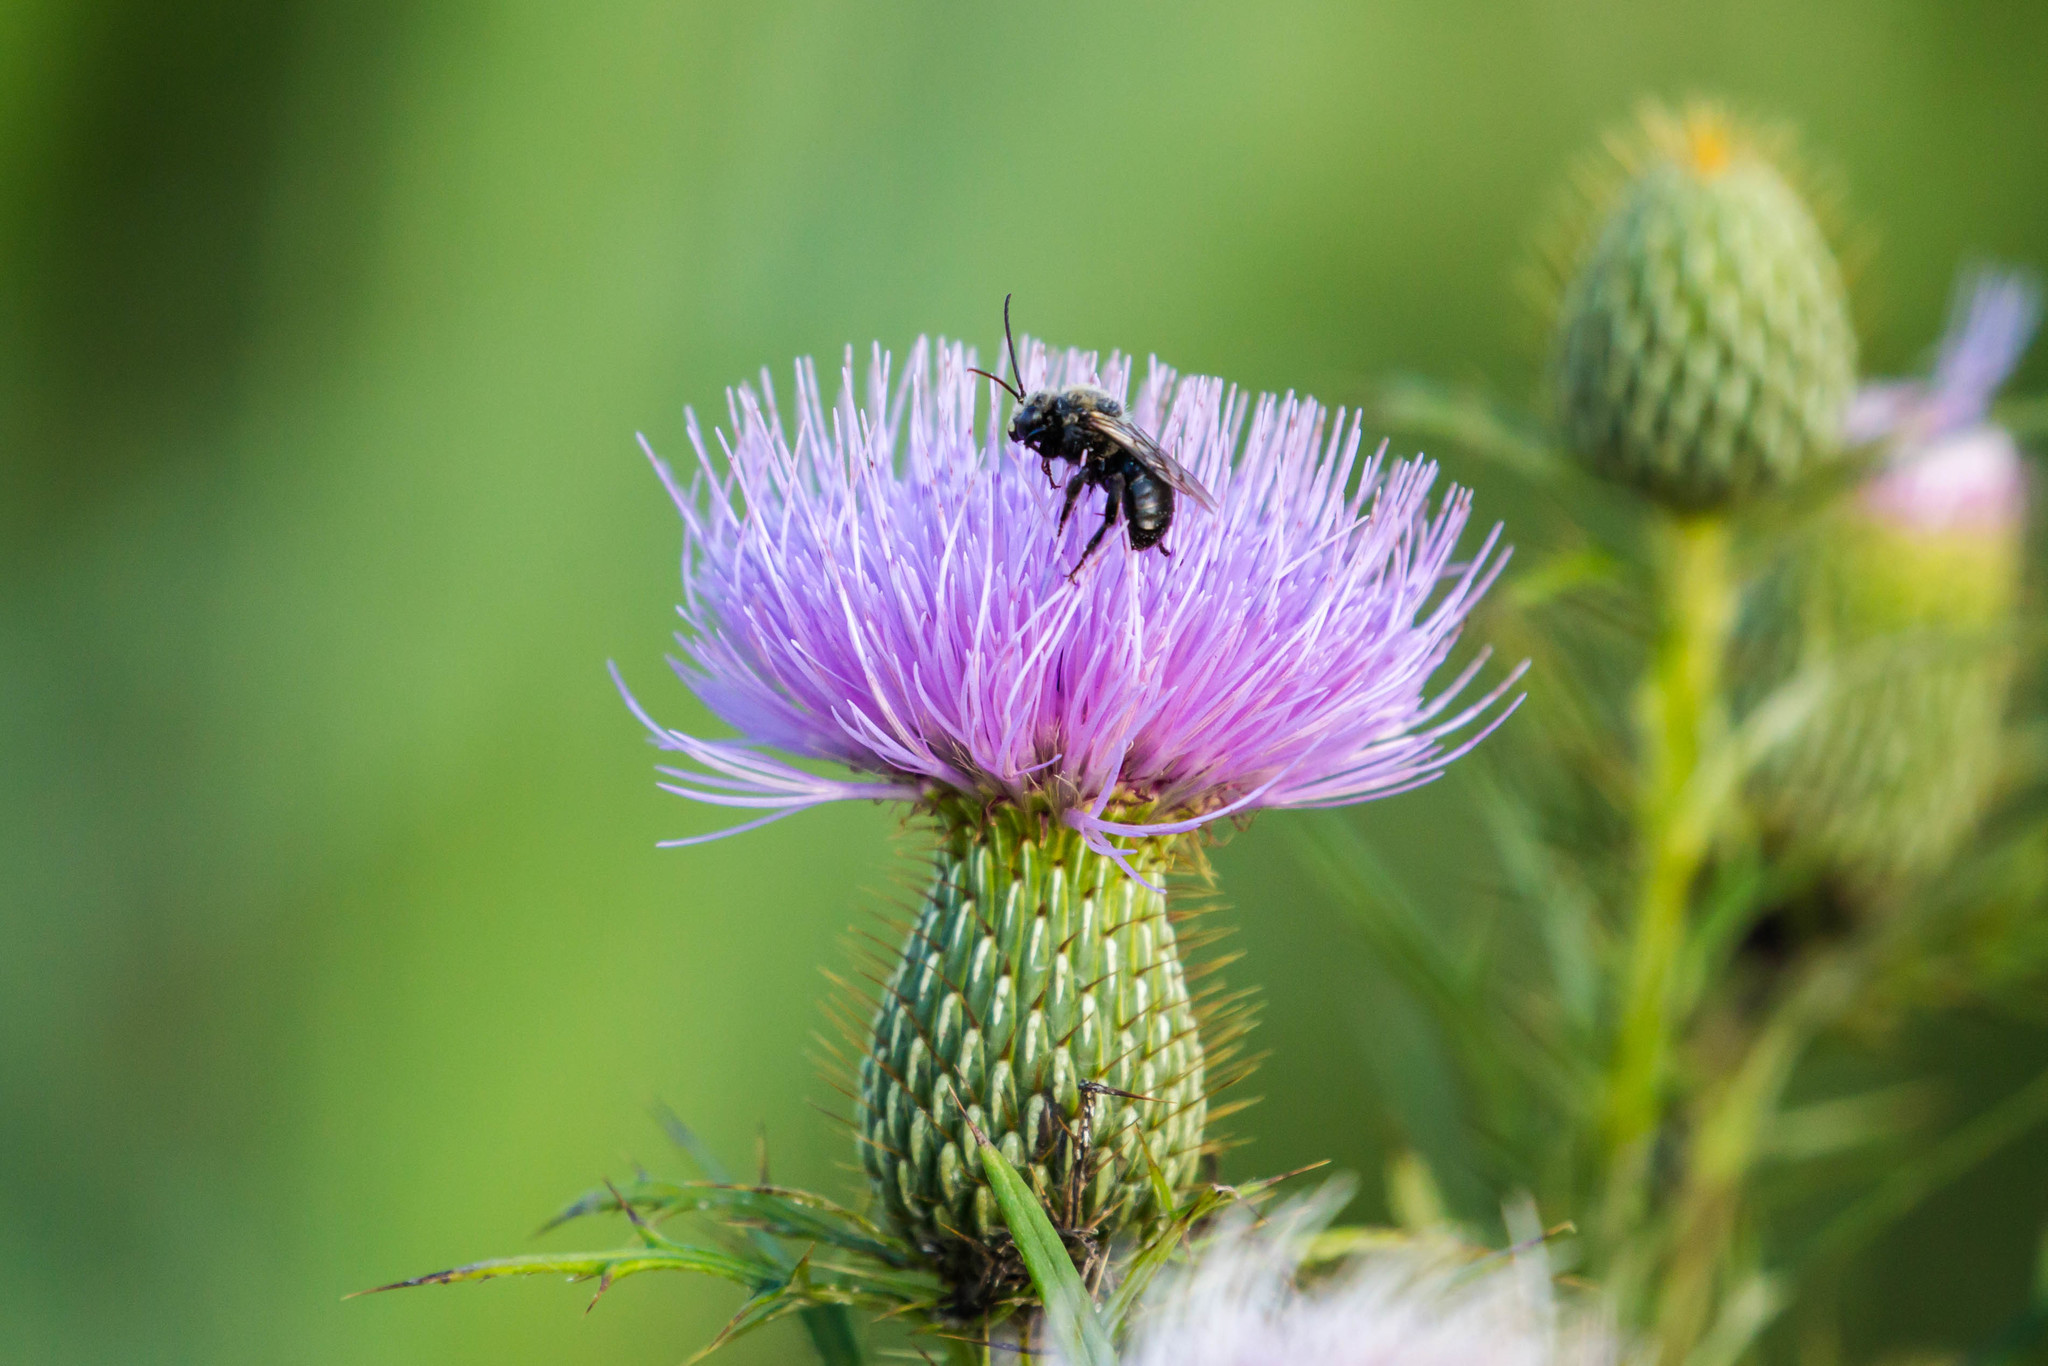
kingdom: Animalia
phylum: Arthropoda
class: Insecta
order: Hymenoptera
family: Apidae
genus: Melissodes
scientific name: Melissodes desponsus
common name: Thistle long-horned bee
